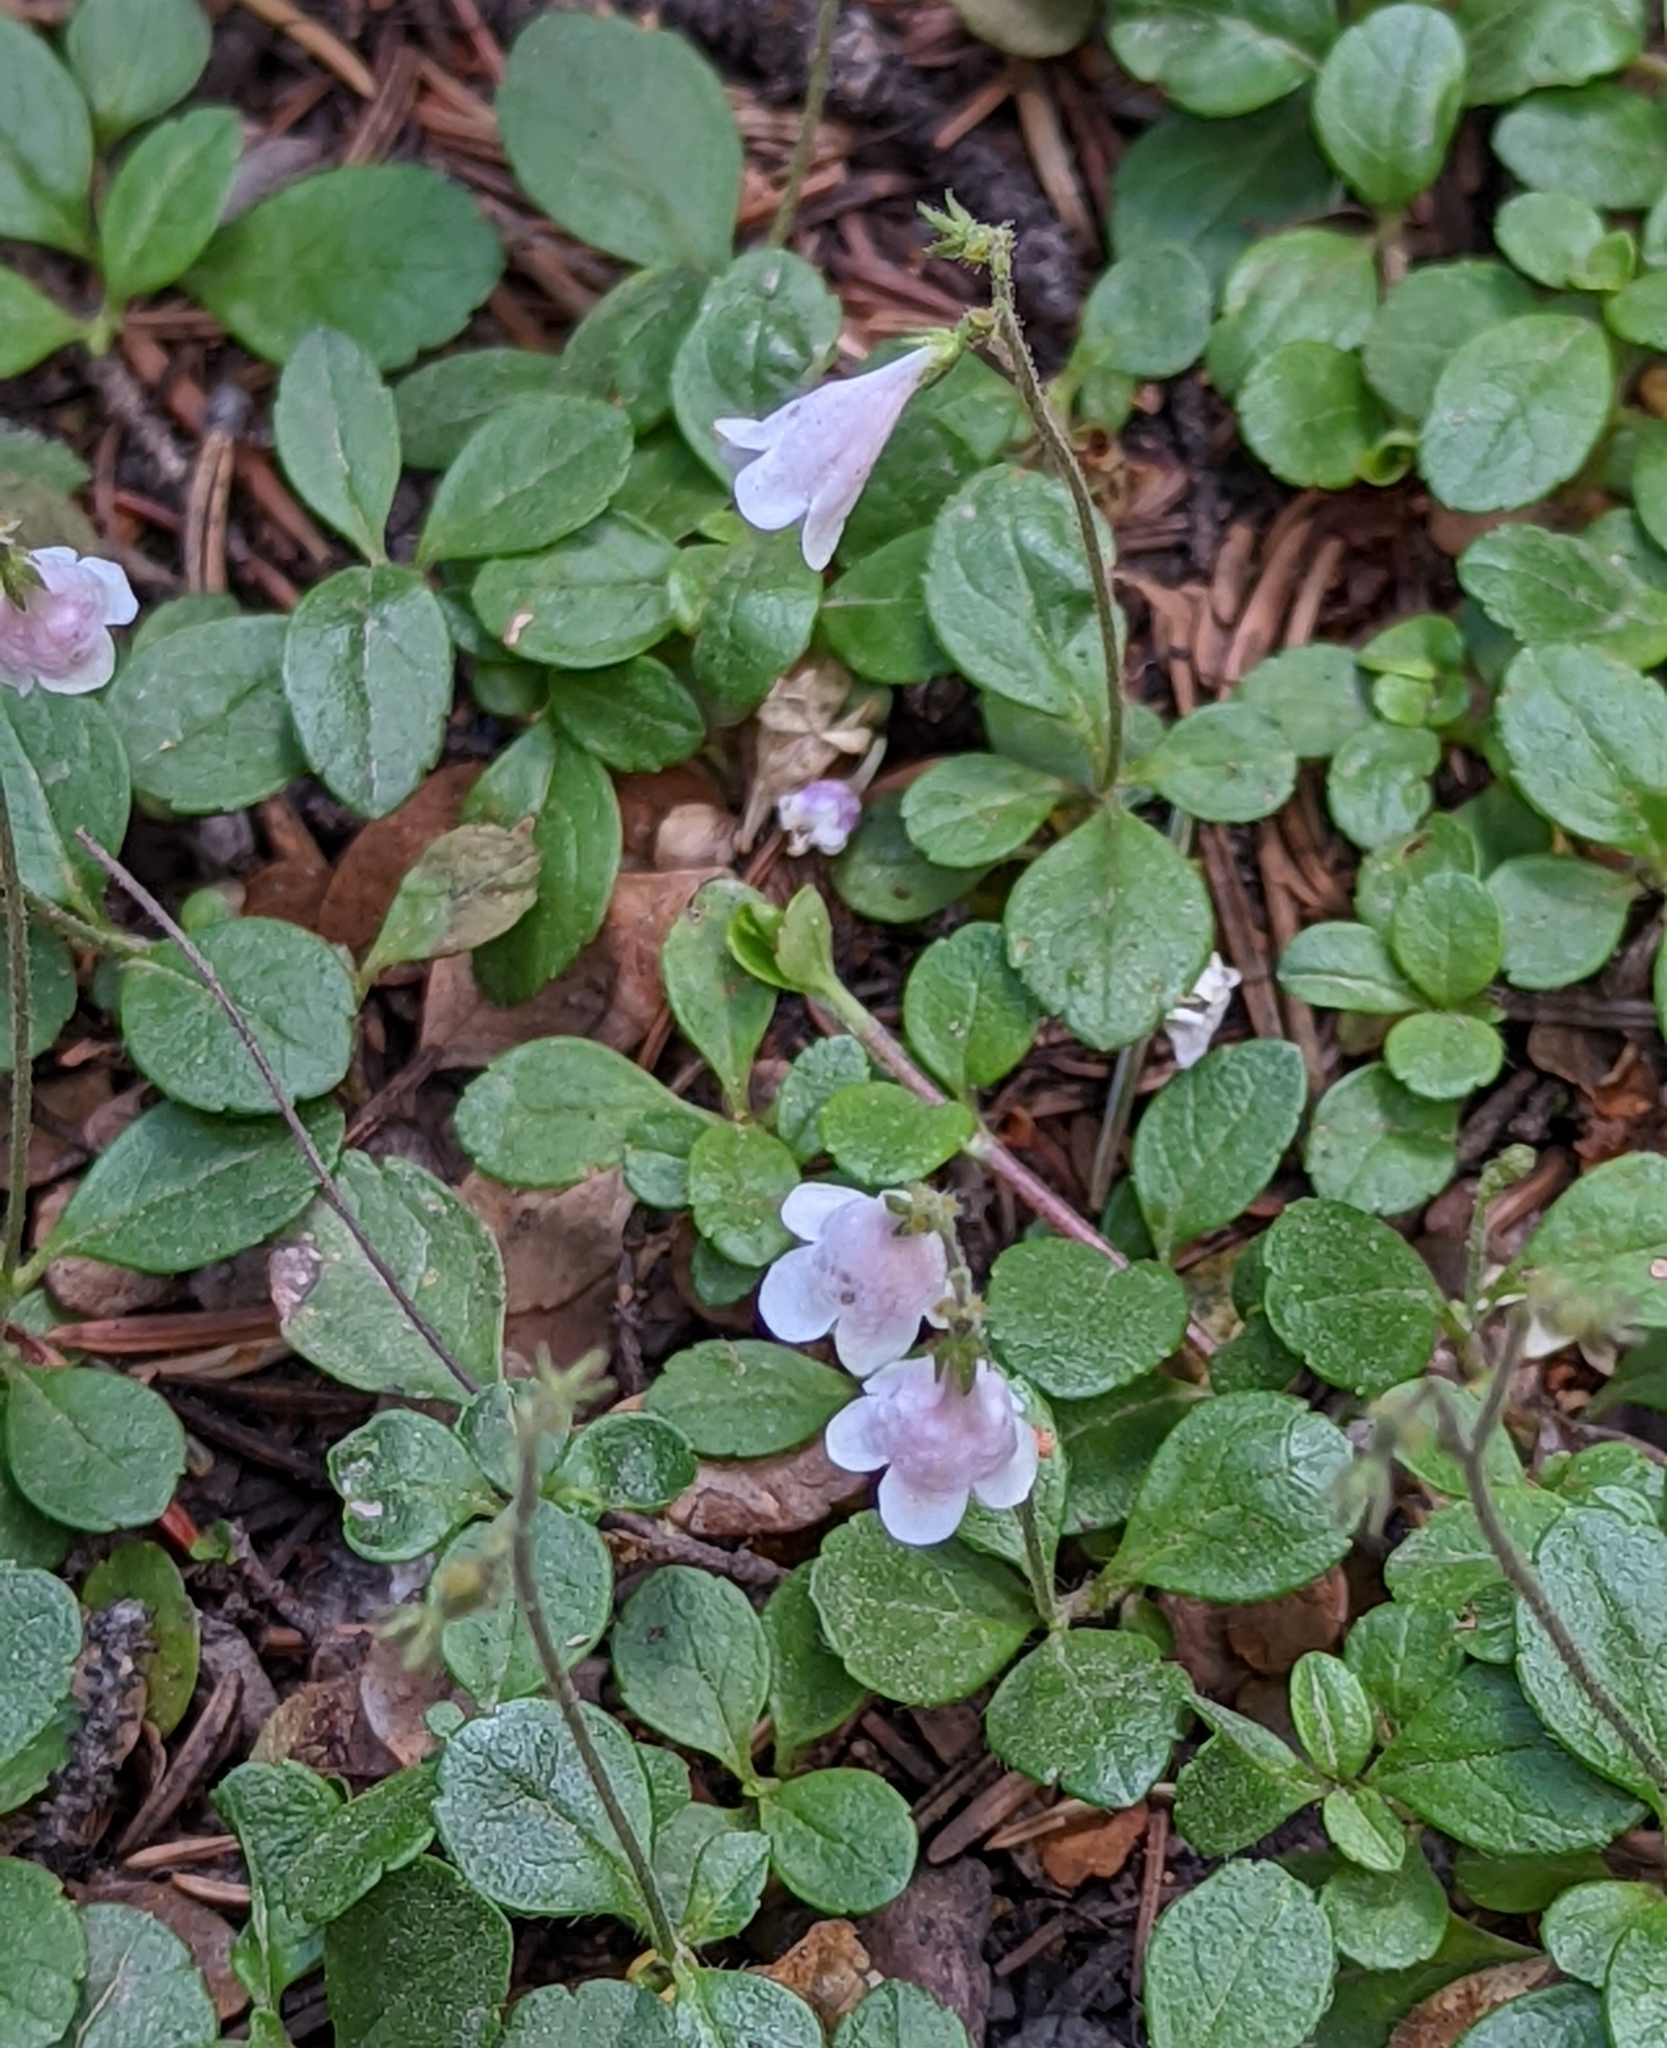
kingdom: Plantae
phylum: Tracheophyta
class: Magnoliopsida
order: Dipsacales
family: Caprifoliaceae
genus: Linnaea
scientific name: Linnaea borealis
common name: Twinflower
